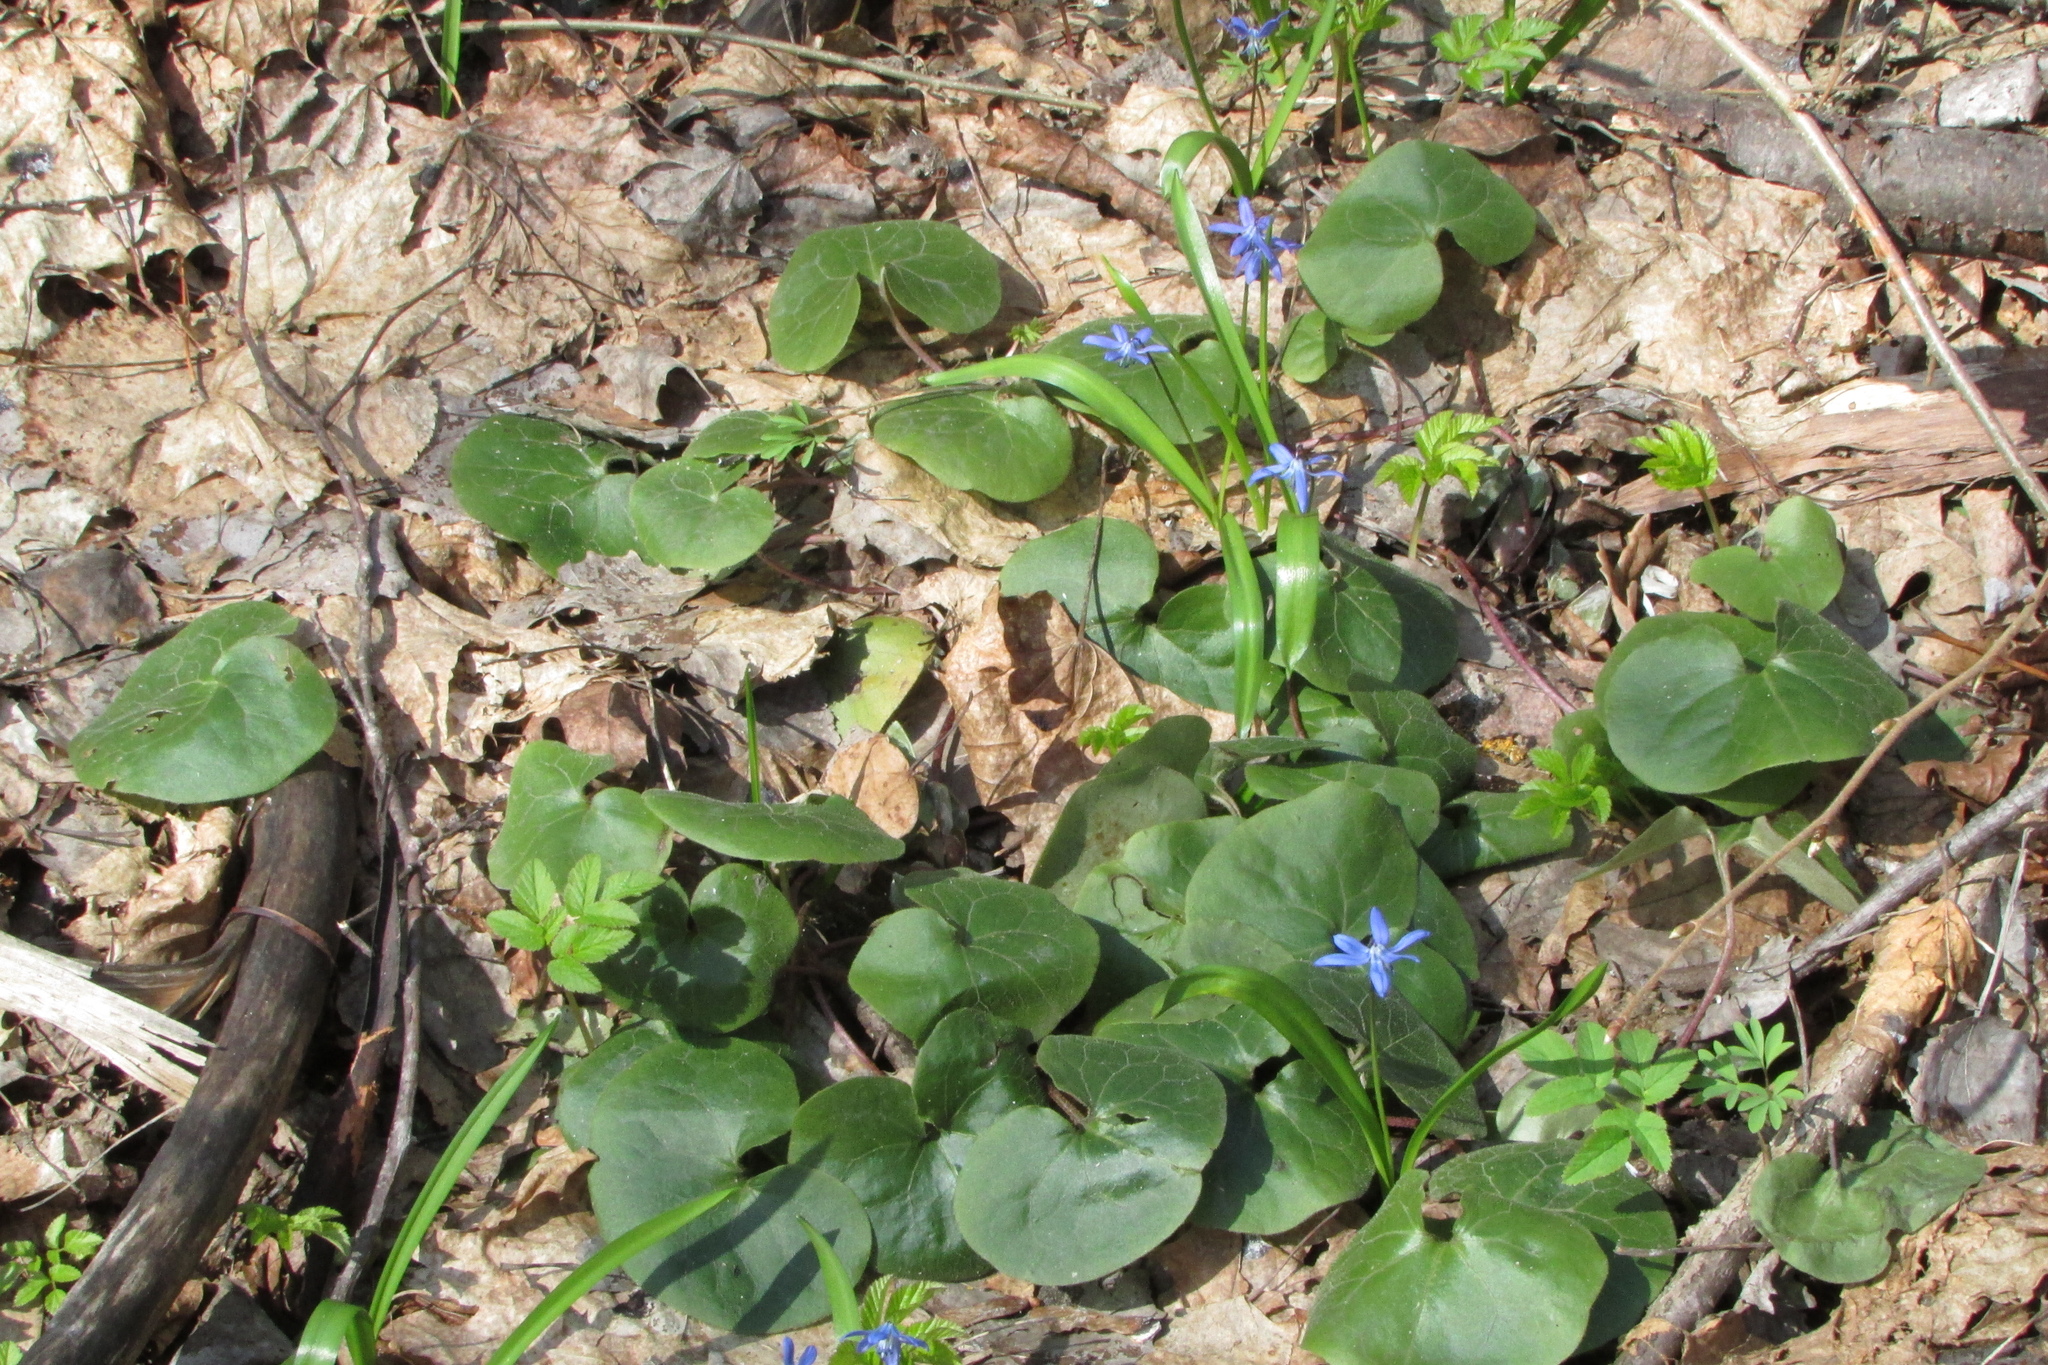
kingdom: Plantae
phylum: Tracheophyta
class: Magnoliopsida
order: Piperales
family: Aristolochiaceae
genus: Asarum
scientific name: Asarum europaeum
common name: Asarabacca
